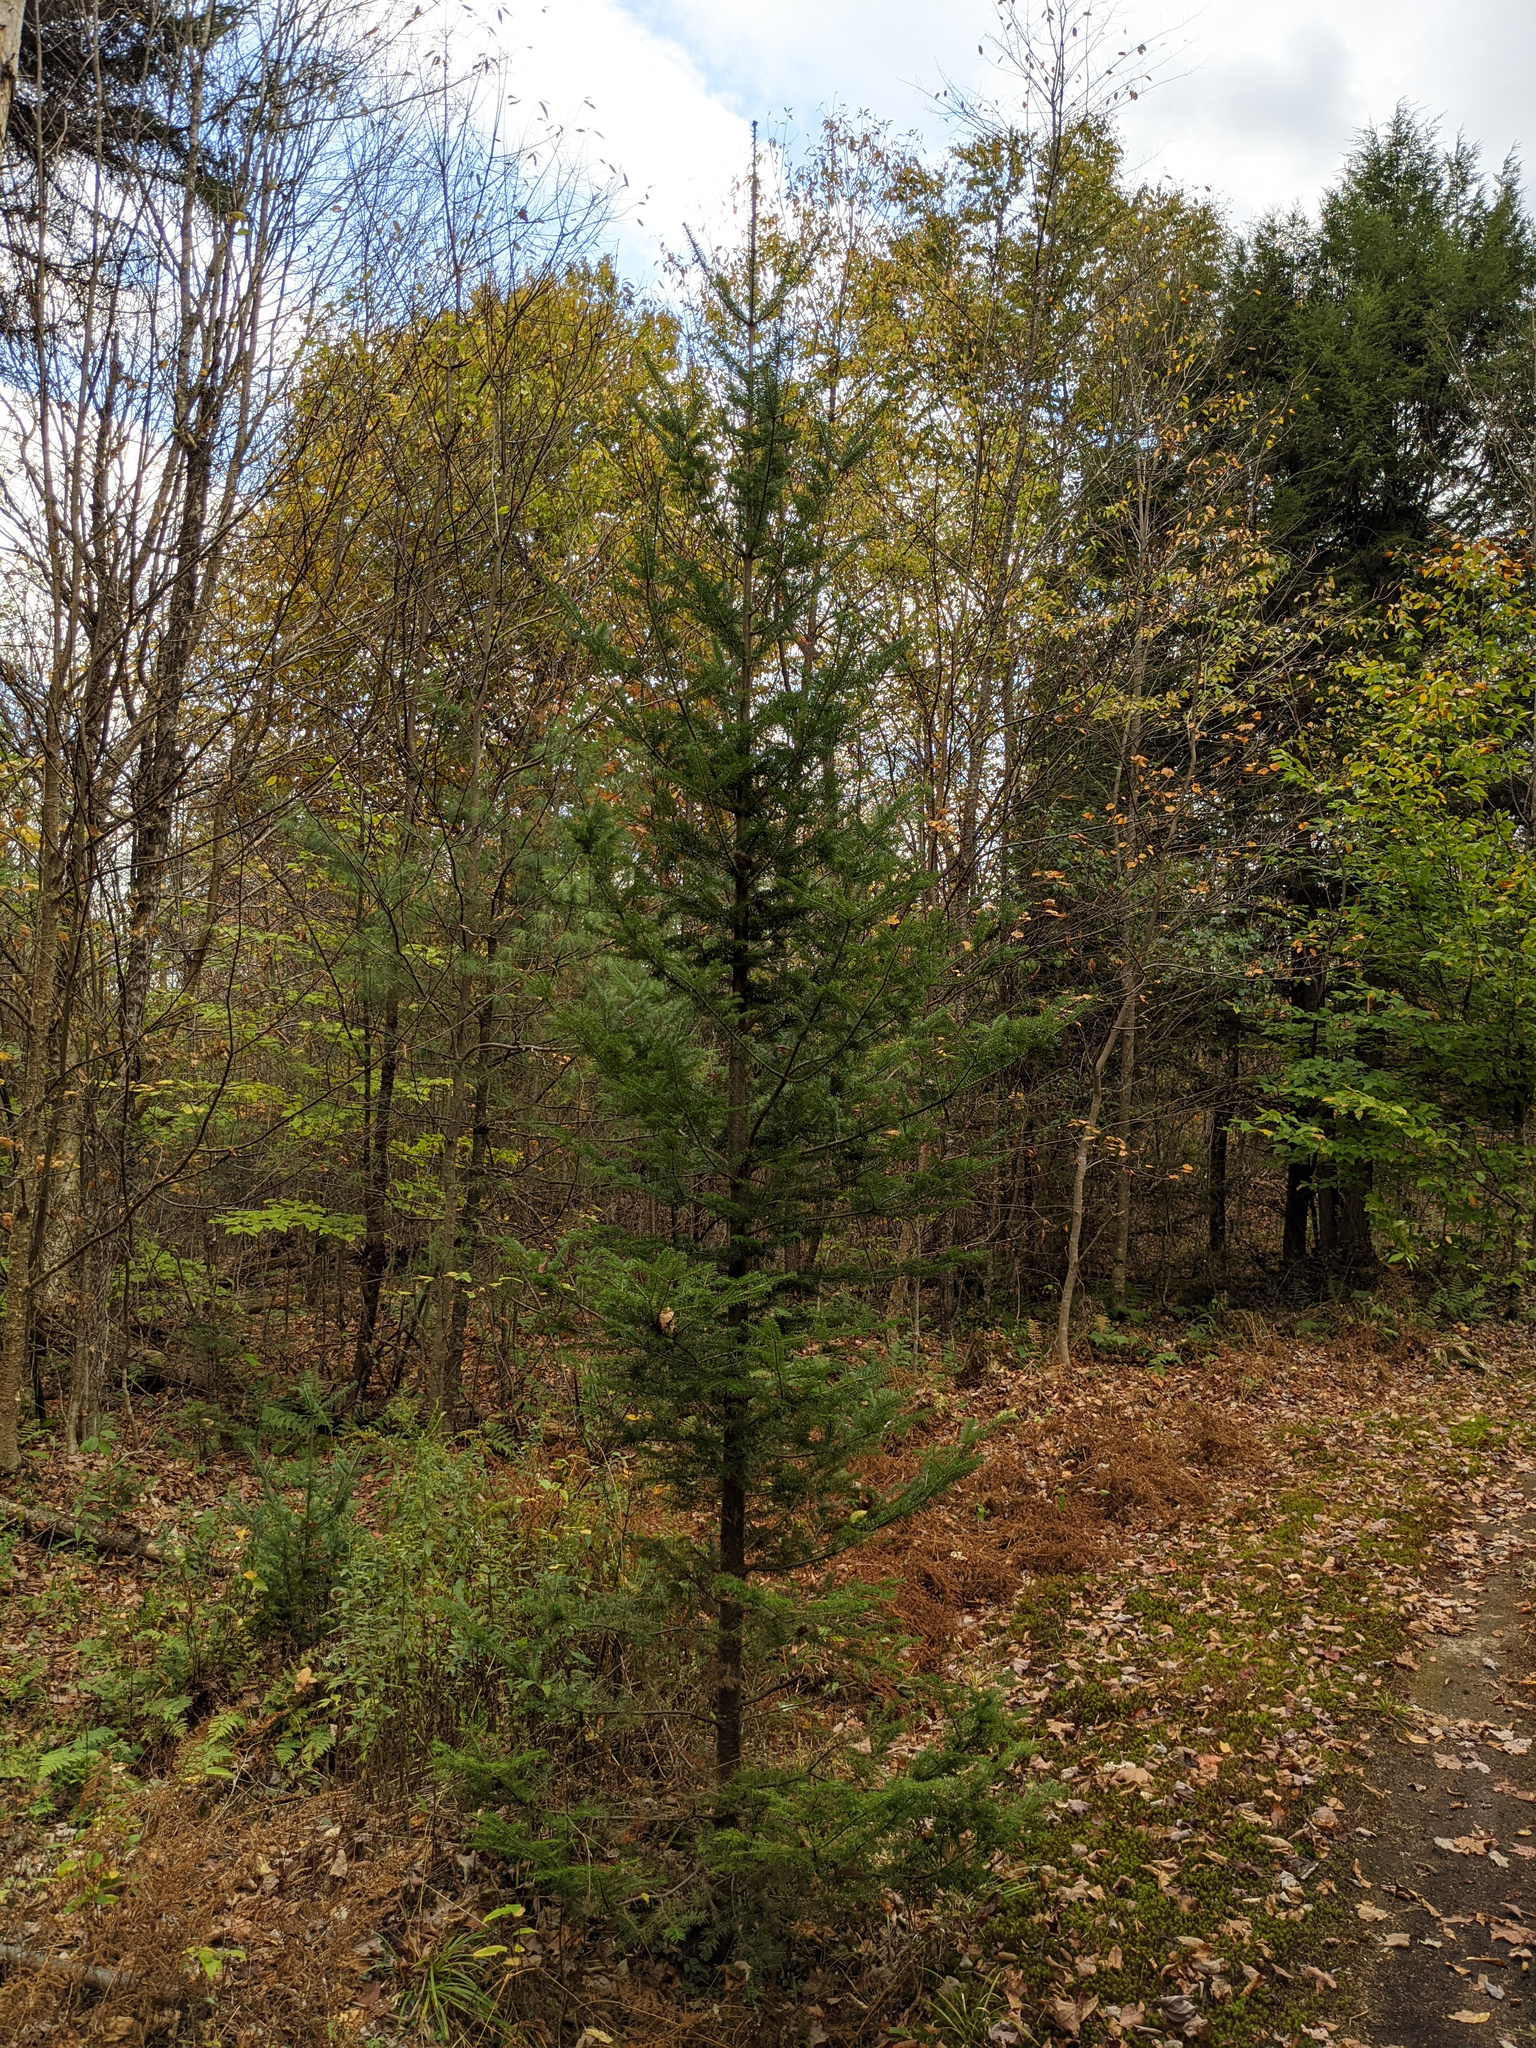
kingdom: Plantae
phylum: Tracheophyta
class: Pinopsida
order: Pinales
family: Pinaceae
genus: Abies
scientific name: Abies balsamea
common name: Balsam fir
